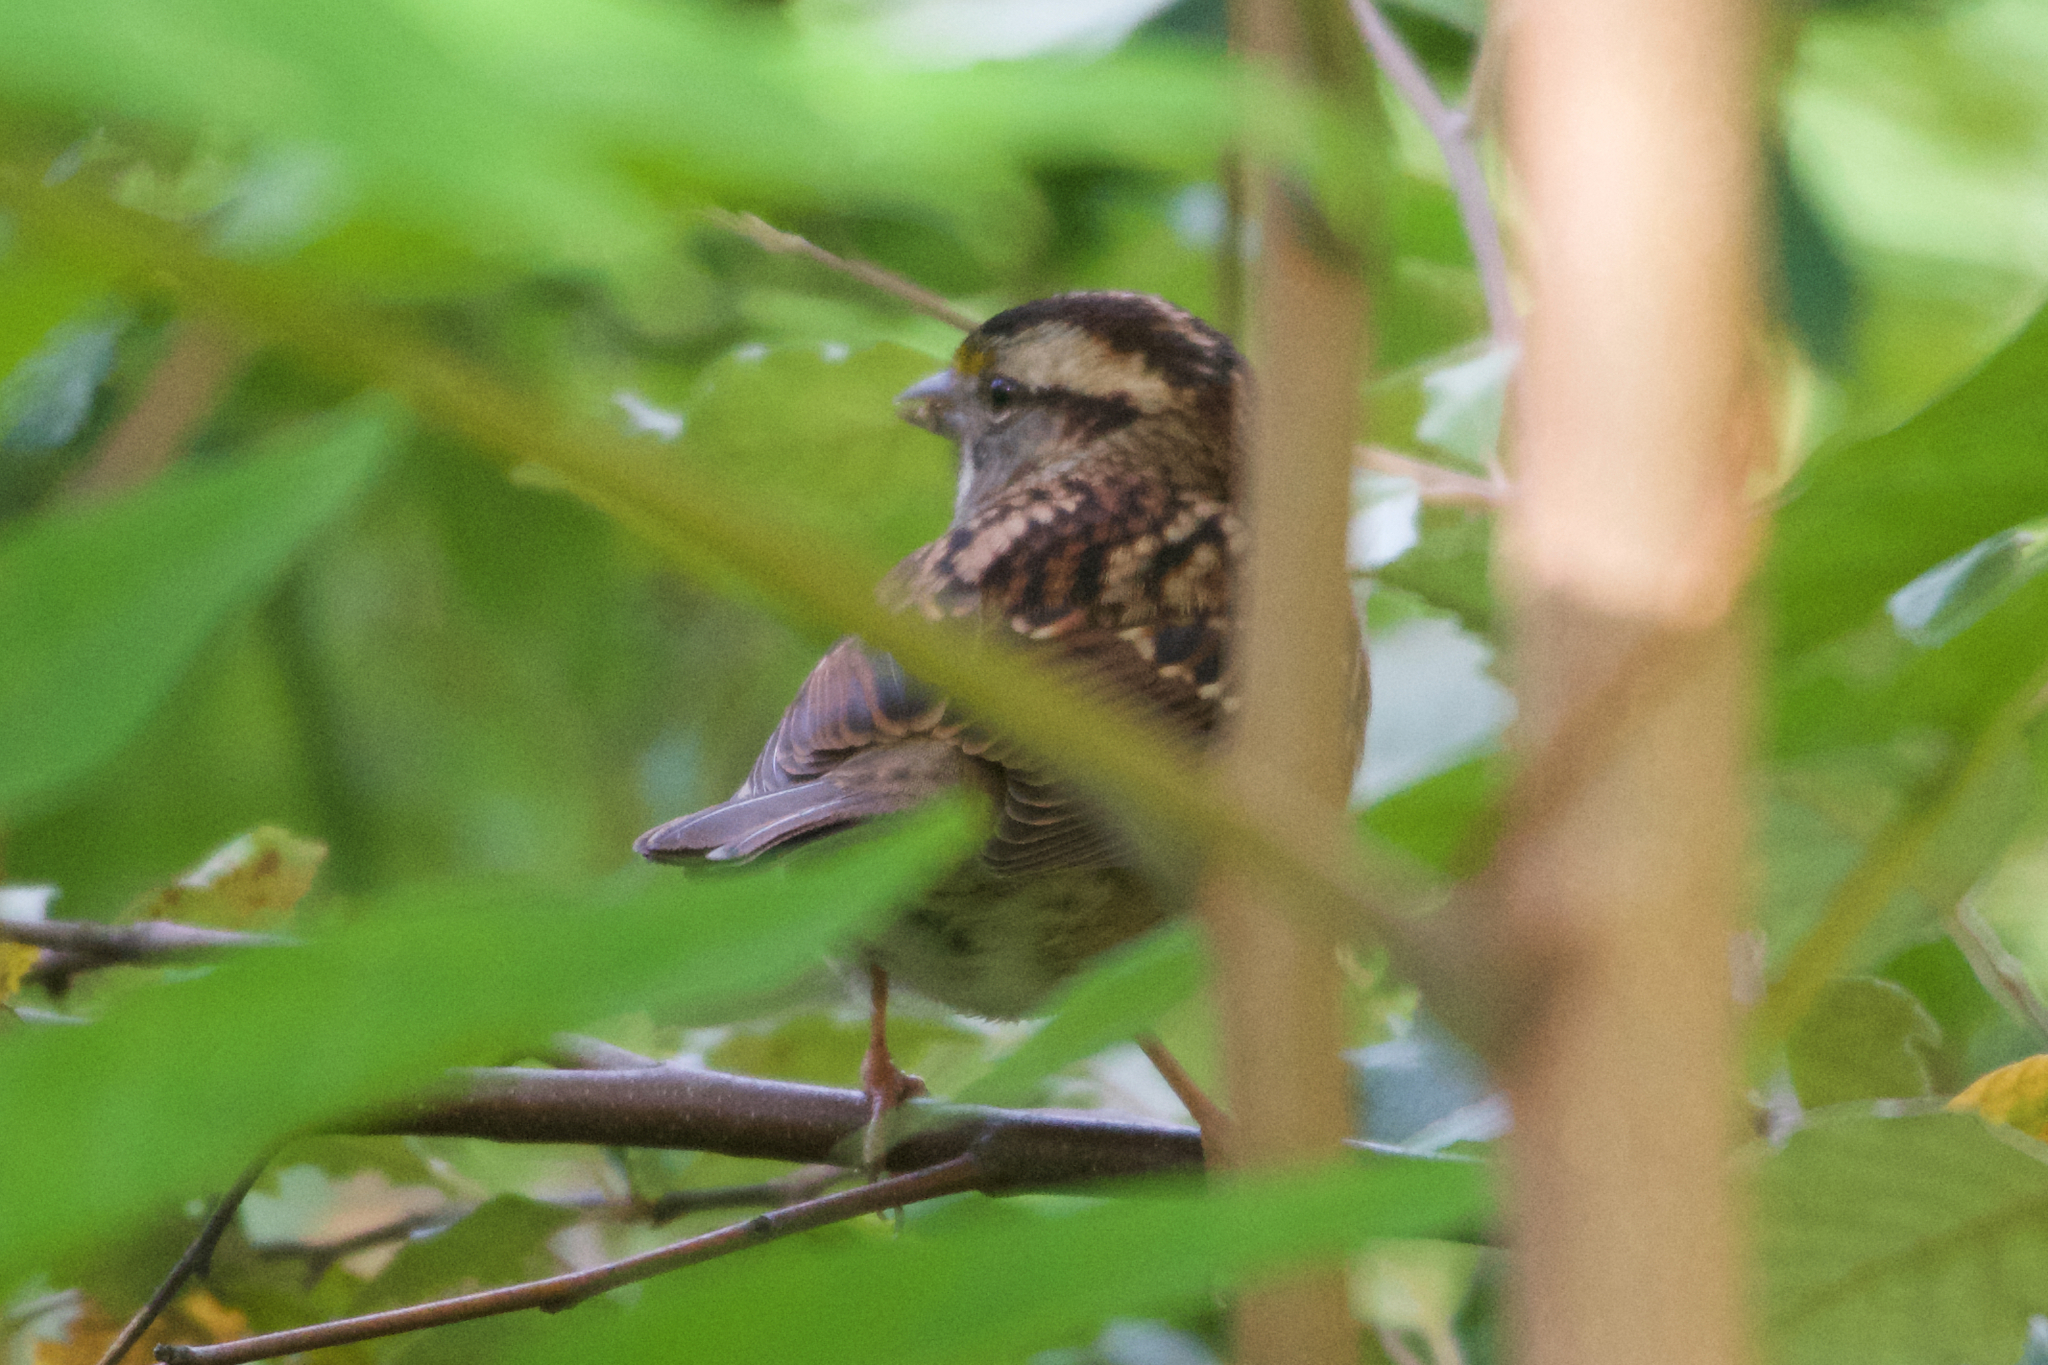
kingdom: Animalia
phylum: Chordata
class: Aves
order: Passeriformes
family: Passerellidae
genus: Zonotrichia
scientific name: Zonotrichia albicollis
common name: White-throated sparrow
